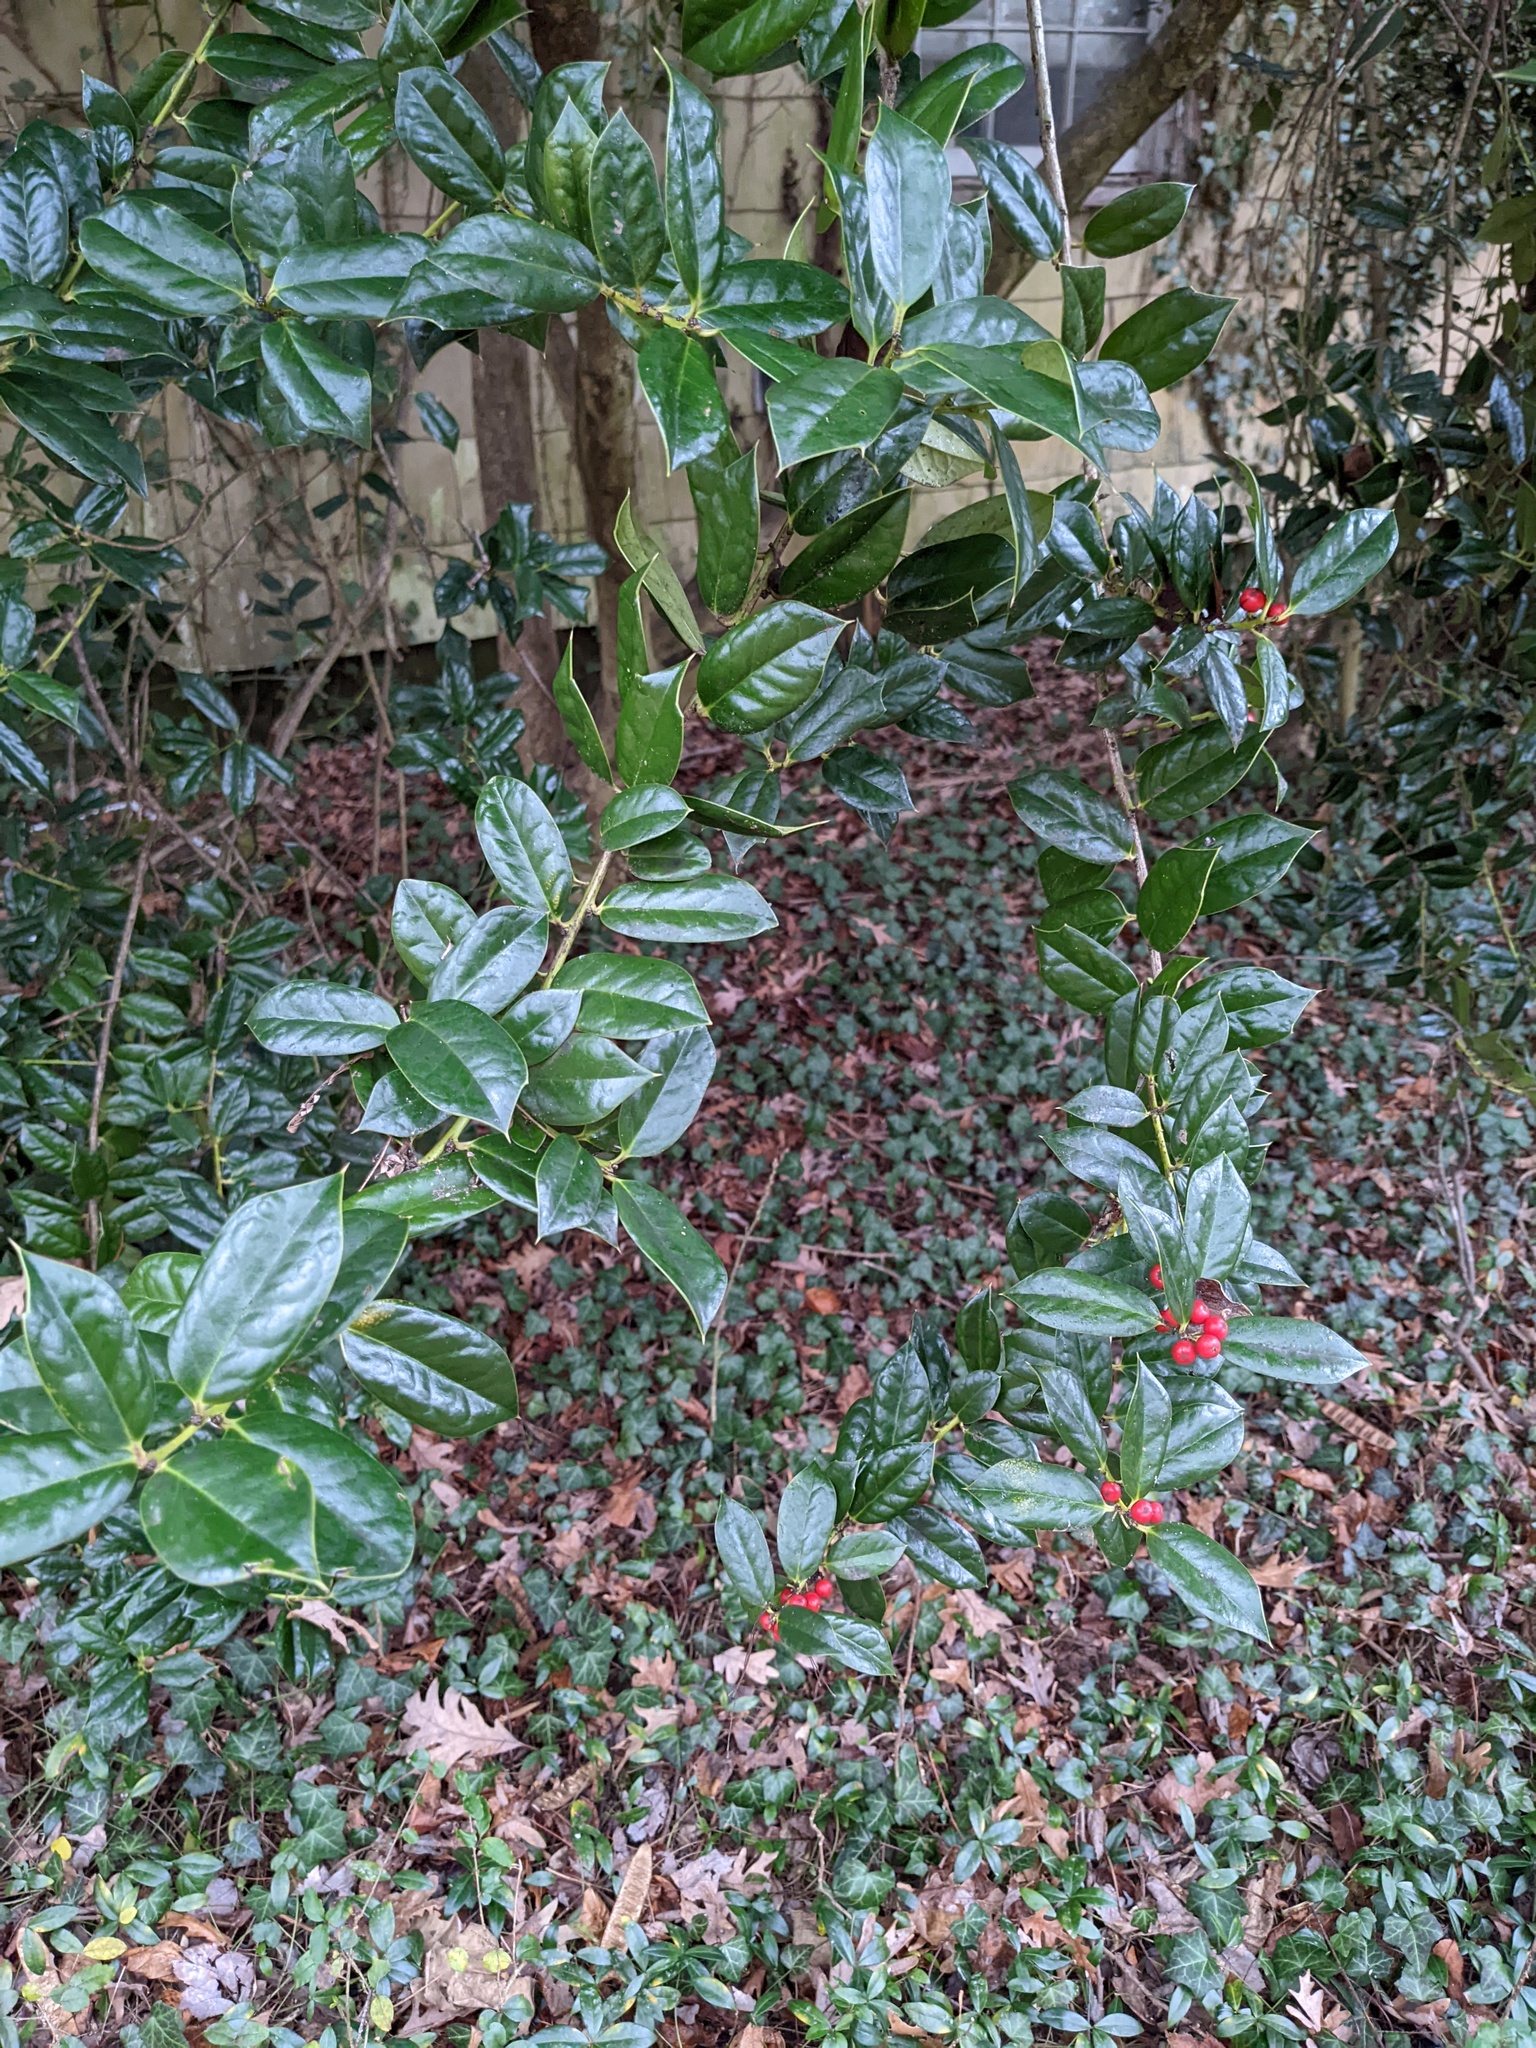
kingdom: Plantae
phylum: Tracheophyta
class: Magnoliopsida
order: Aquifoliales
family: Aquifoliaceae
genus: Ilex
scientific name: Ilex cornuta
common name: Chinese holly
